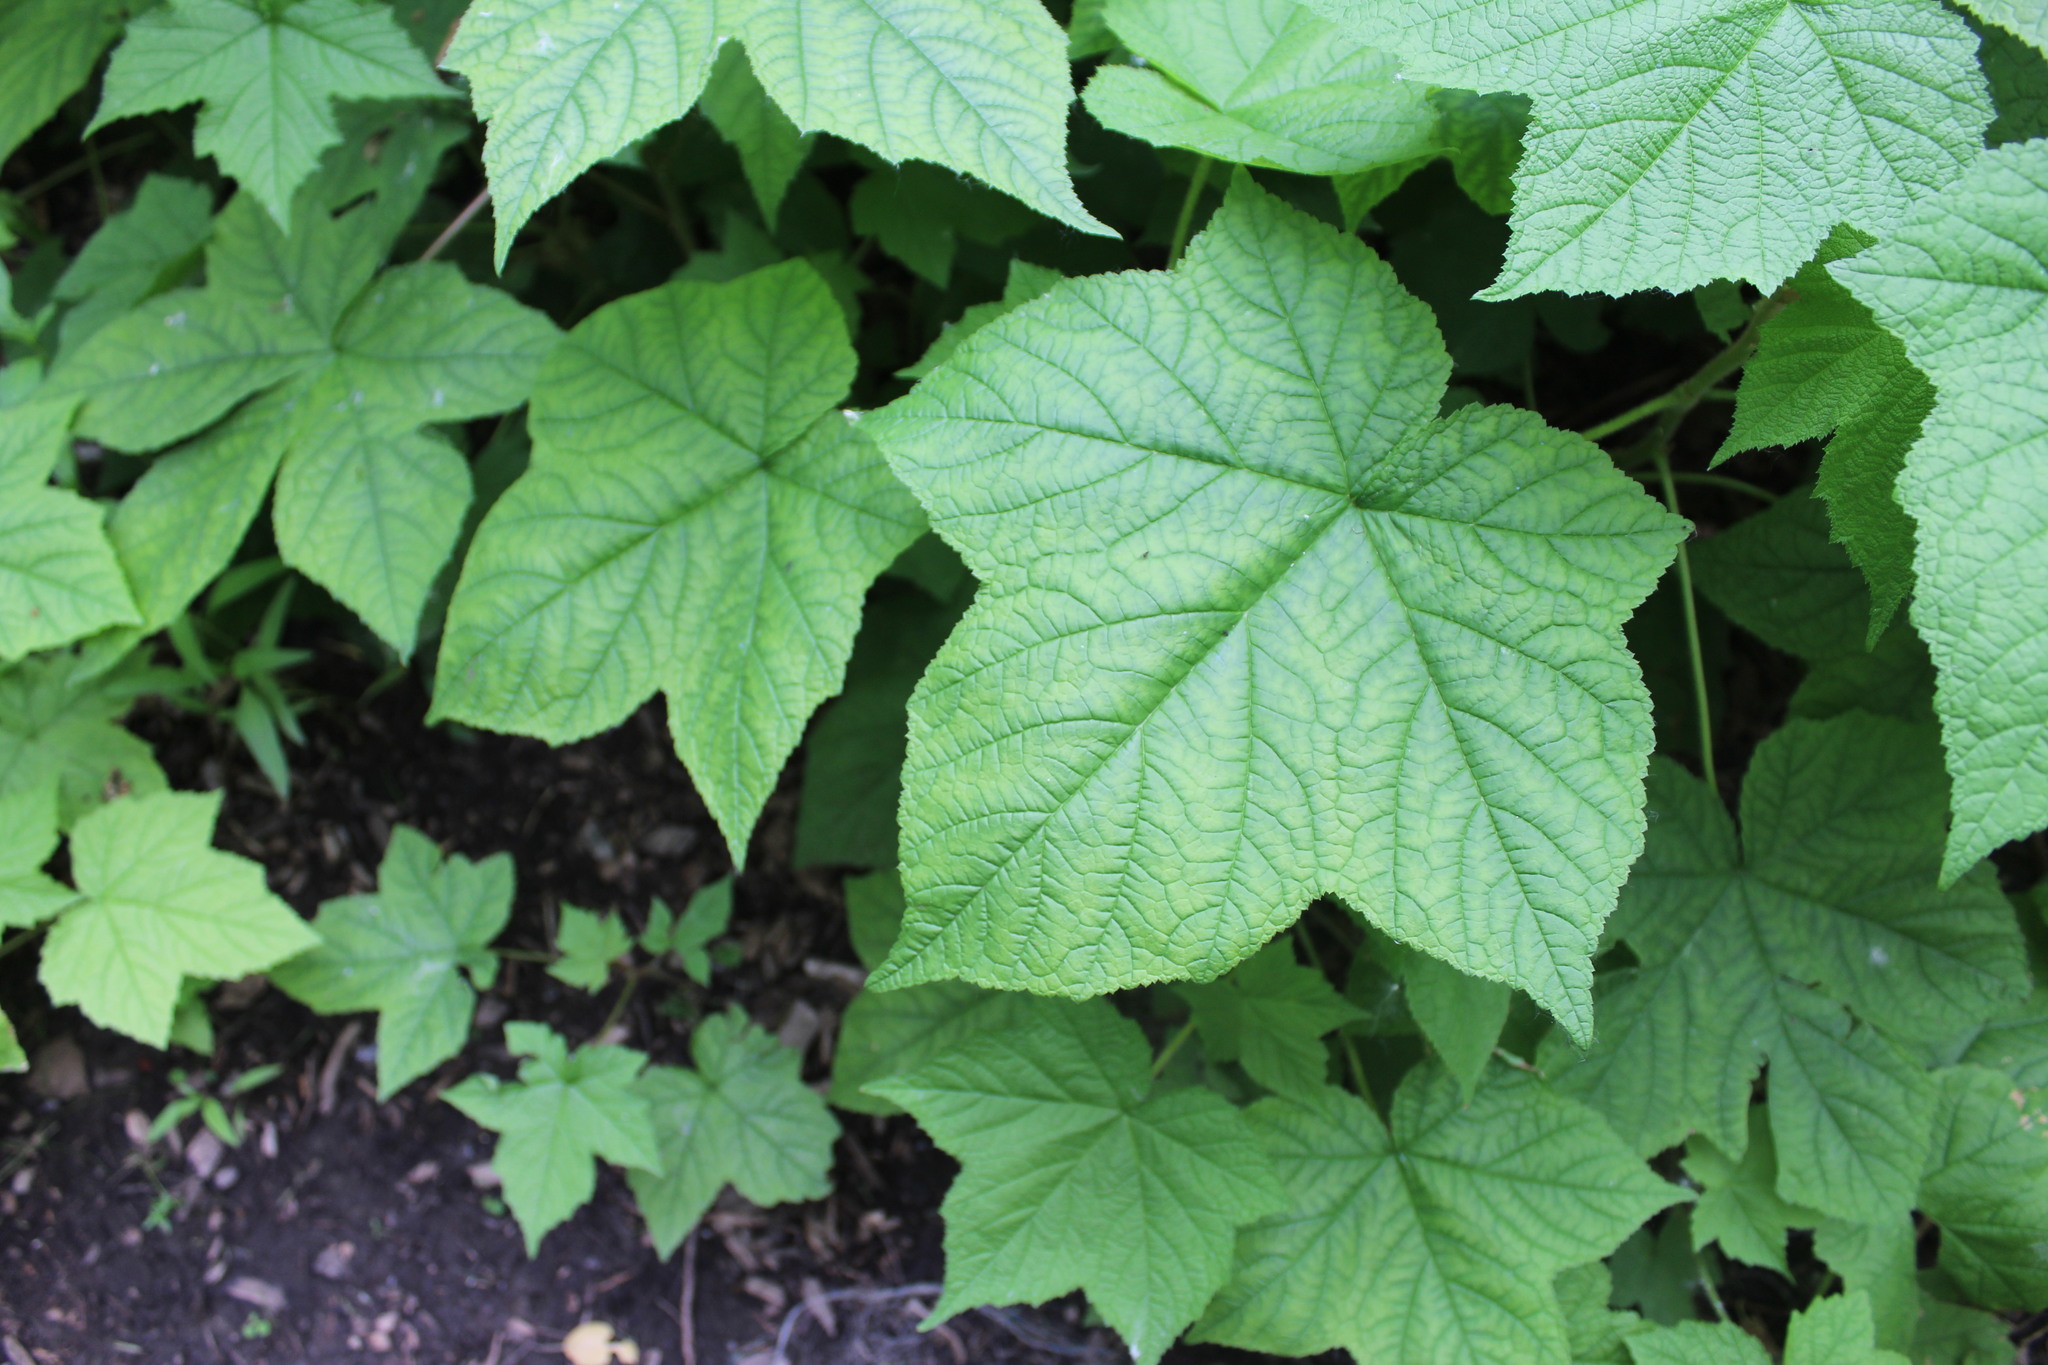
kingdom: Plantae
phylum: Tracheophyta
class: Magnoliopsida
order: Rosales
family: Rosaceae
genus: Rubus
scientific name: Rubus odoratus
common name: Purple-flowered raspberry
